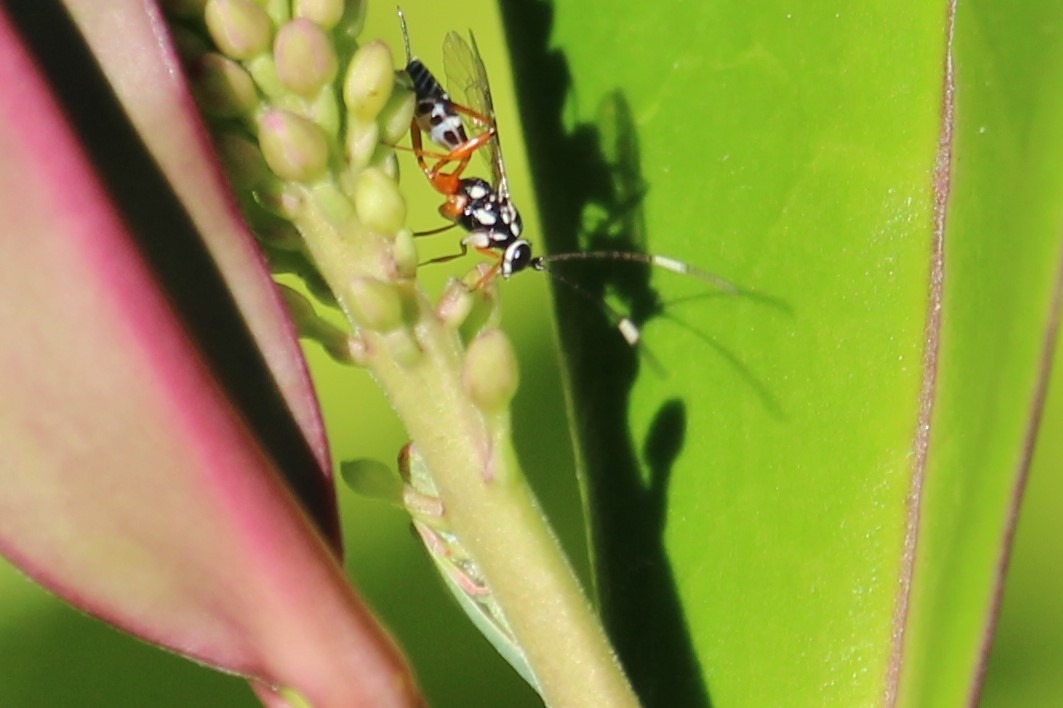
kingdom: Animalia
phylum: Arthropoda
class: Insecta
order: Hymenoptera
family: Ichneumonidae
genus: Glabridorsum
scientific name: Glabridorsum stokesii
